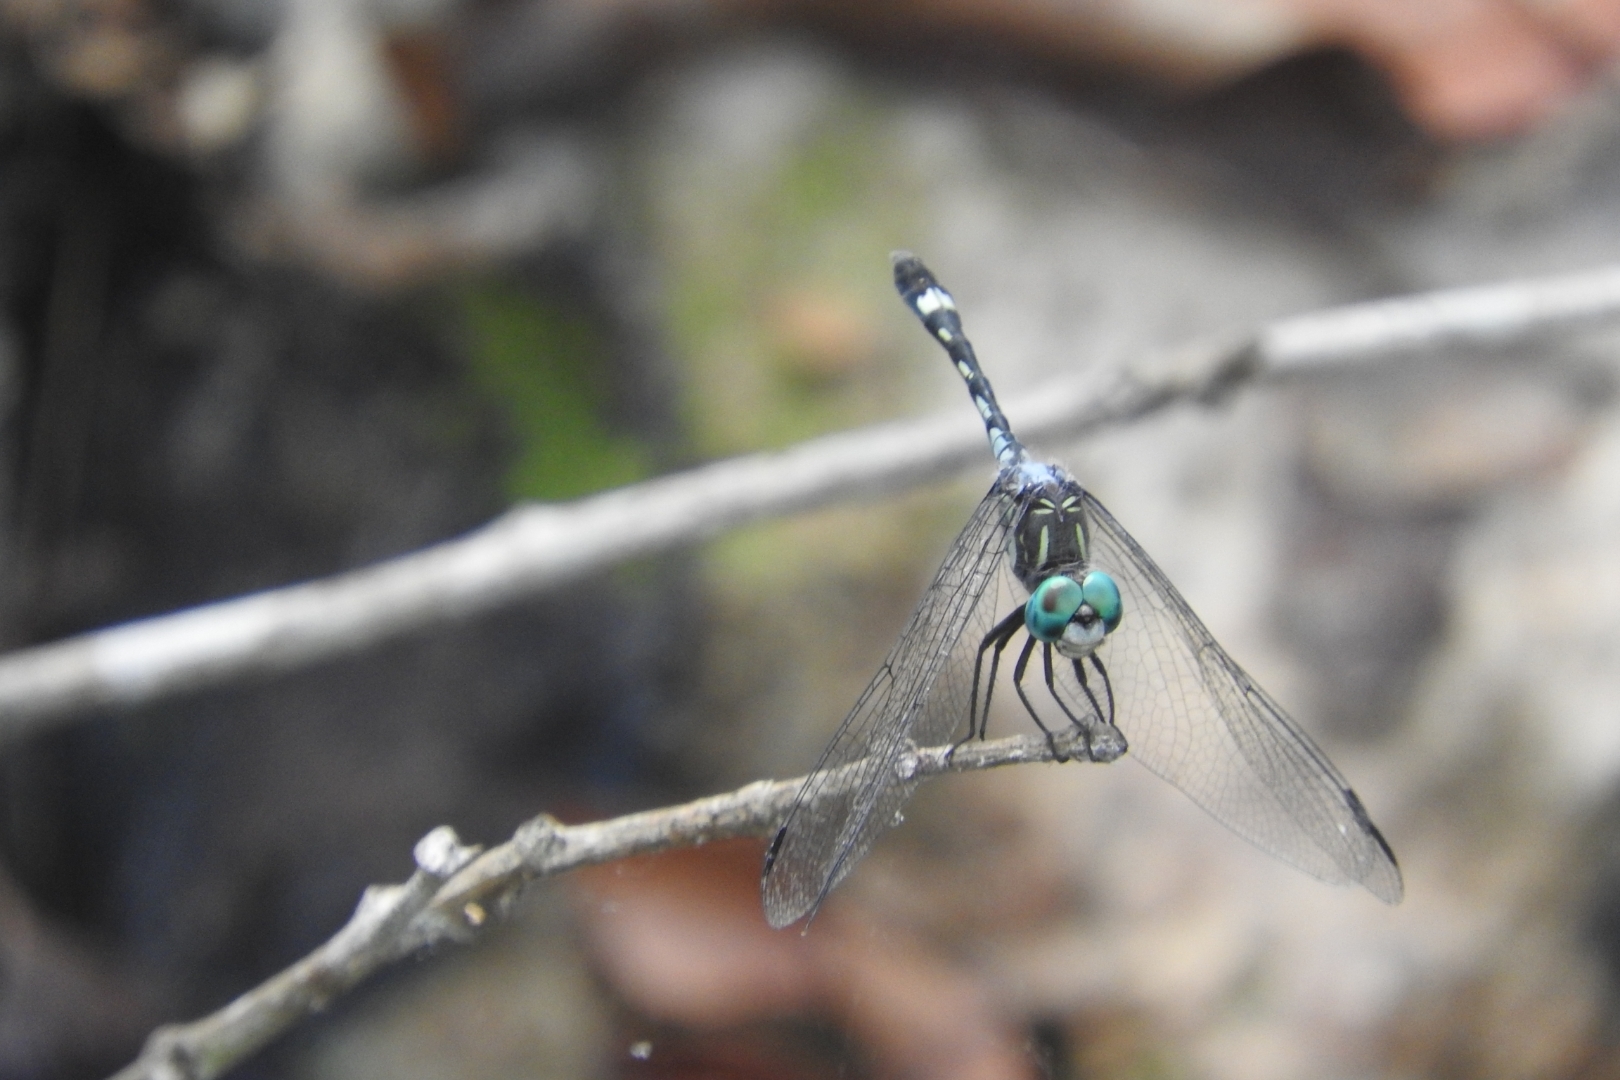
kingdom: Animalia
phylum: Arthropoda
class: Insecta
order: Odonata
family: Libellulidae
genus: Micrathyria
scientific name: Micrathyria hagenii
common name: Thornbush dasher
